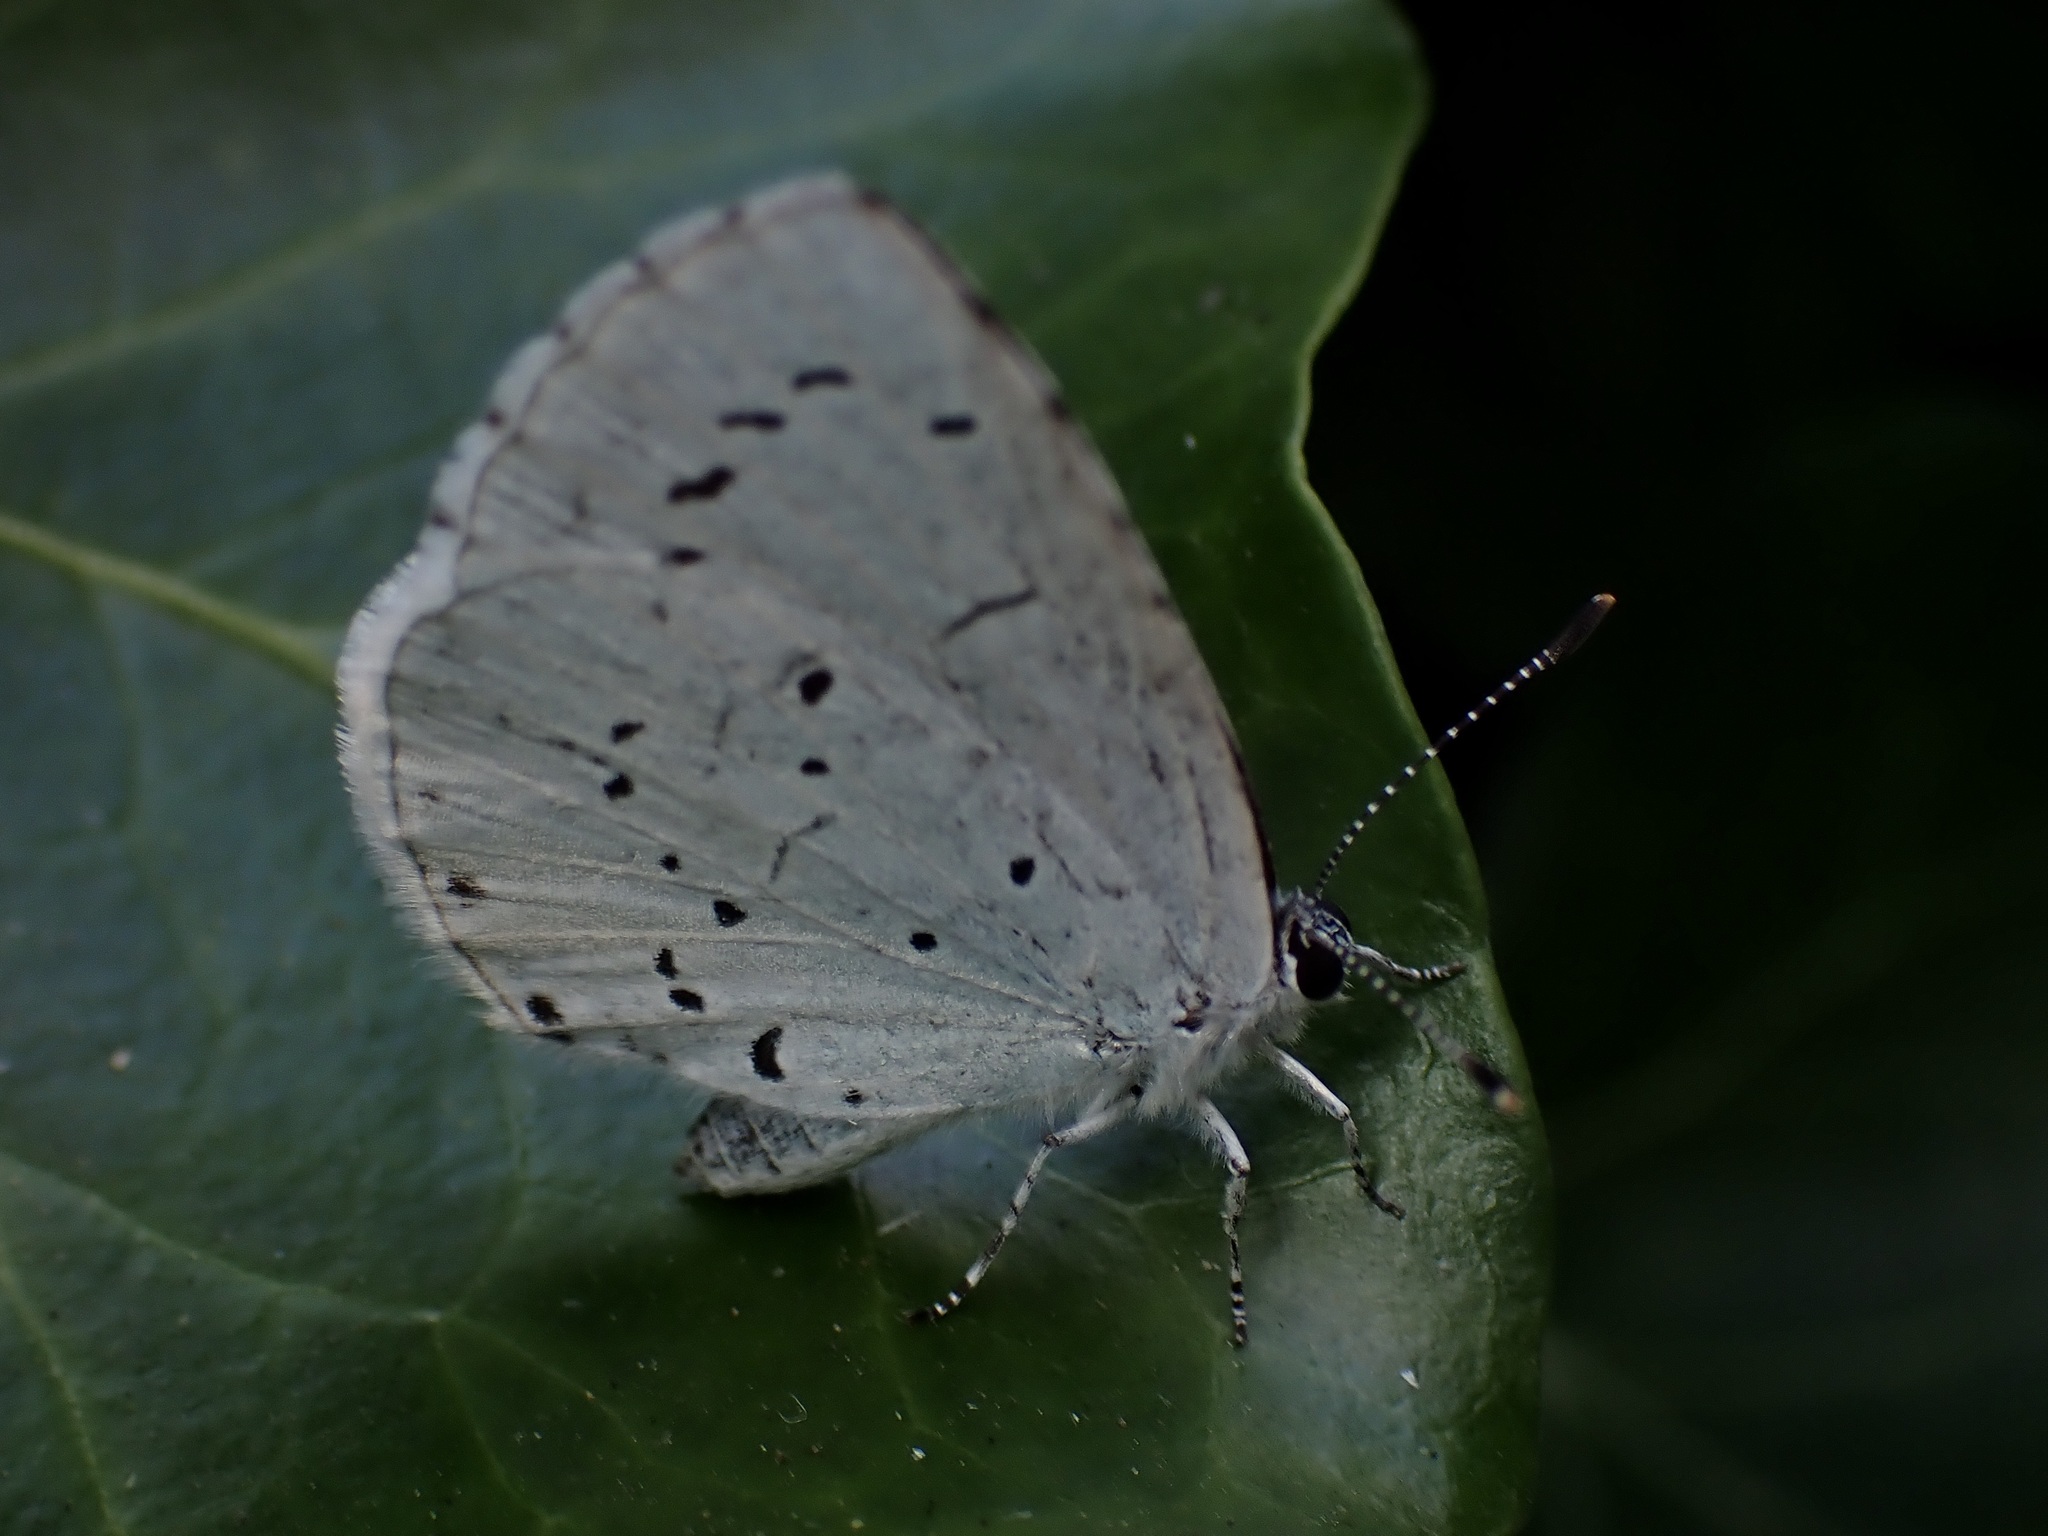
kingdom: Animalia
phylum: Arthropoda
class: Insecta
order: Lepidoptera
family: Lycaenidae
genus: Celastrina
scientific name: Celastrina argiolus
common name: Holly blue
